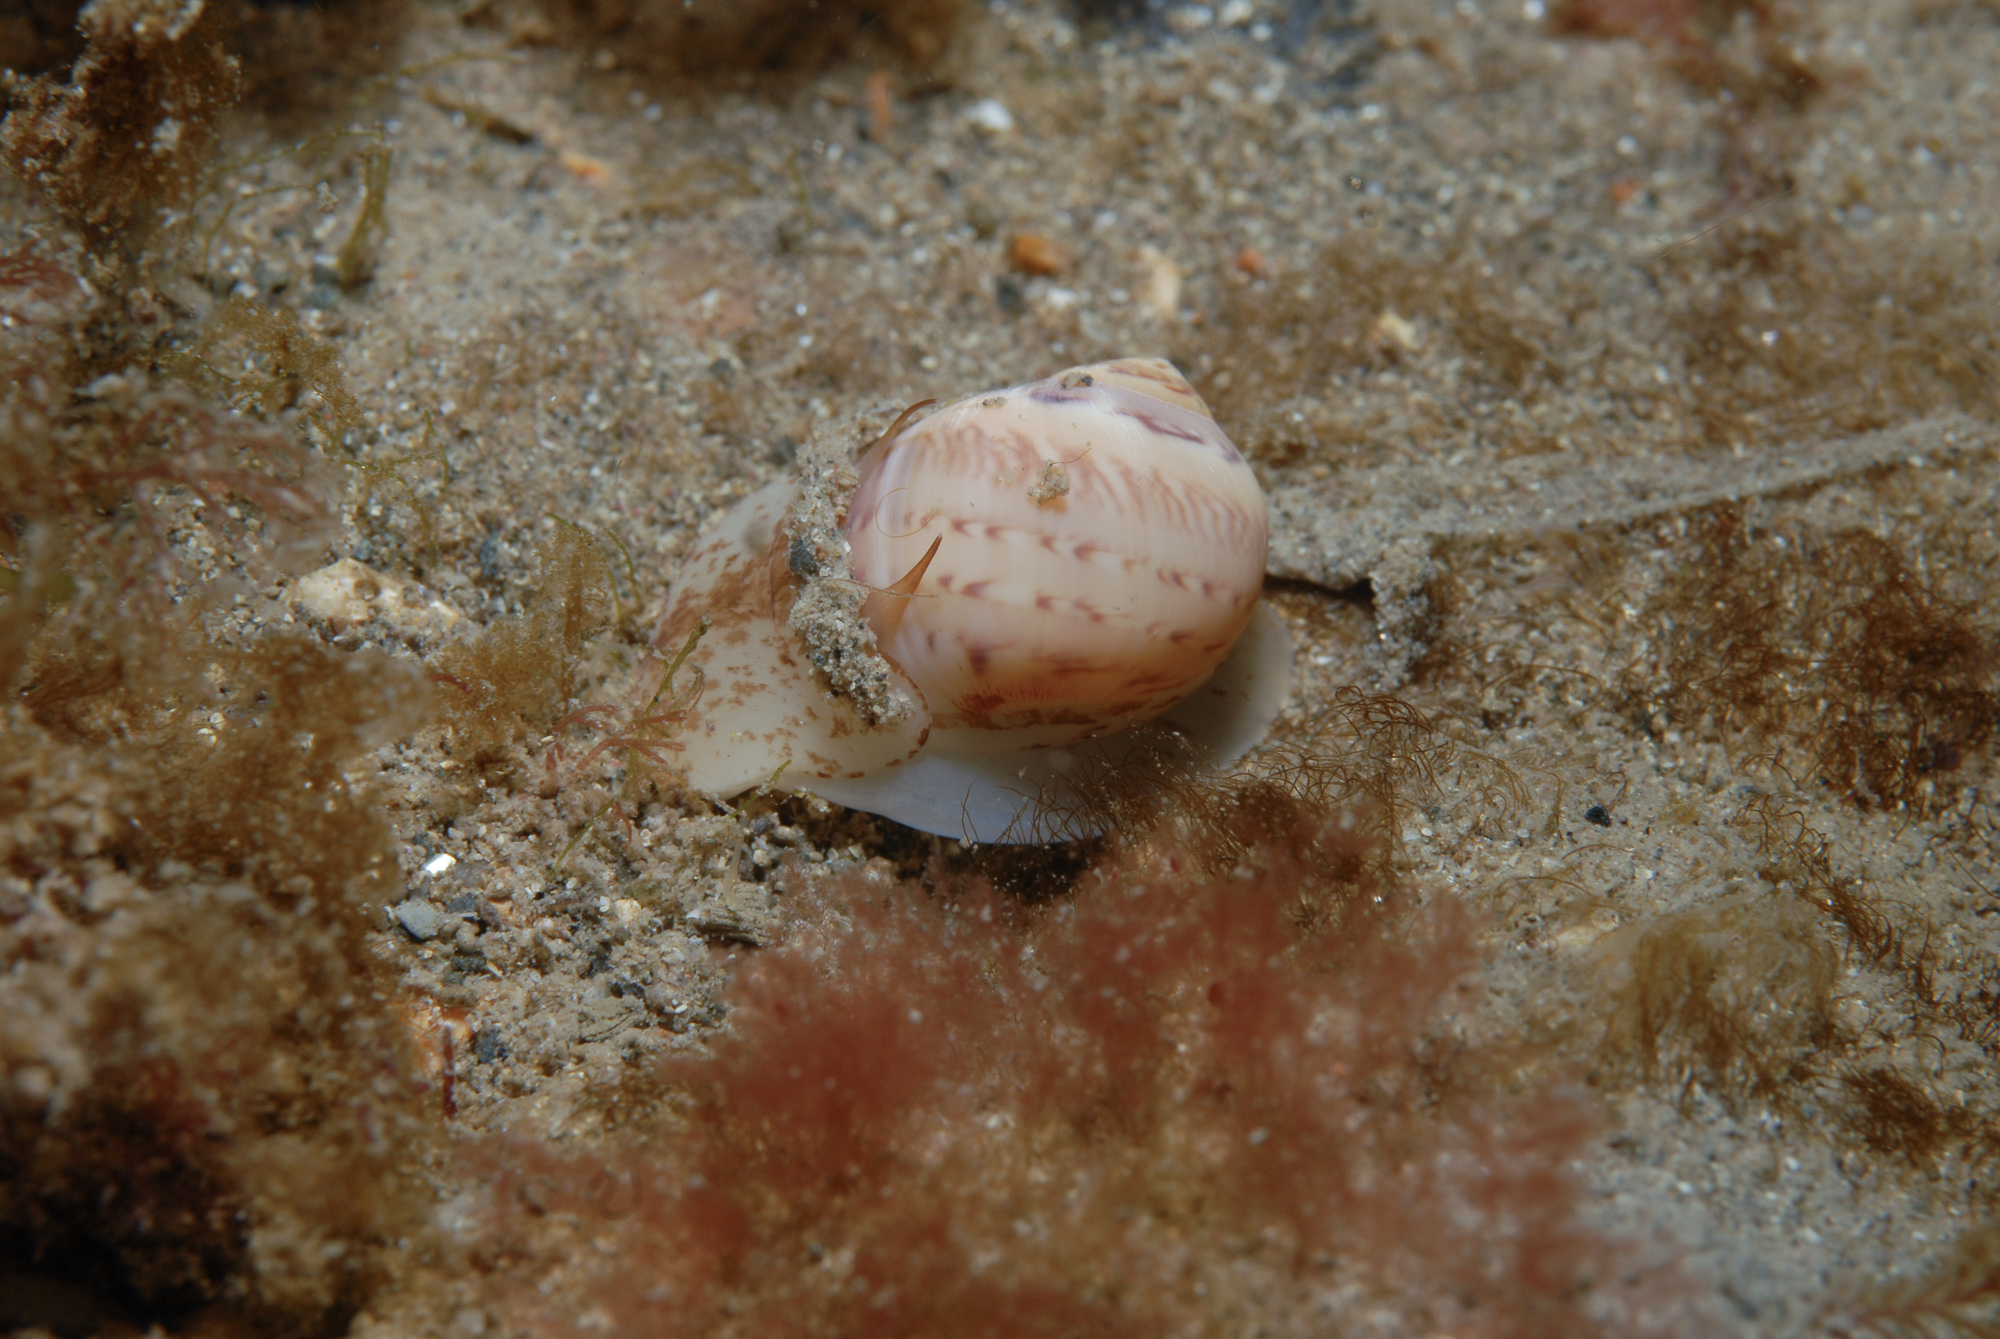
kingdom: Animalia
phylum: Mollusca
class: Gastropoda
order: Littorinimorpha
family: Naticidae
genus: Euspira
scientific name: Euspira nitida
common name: Alder's necklace shell
